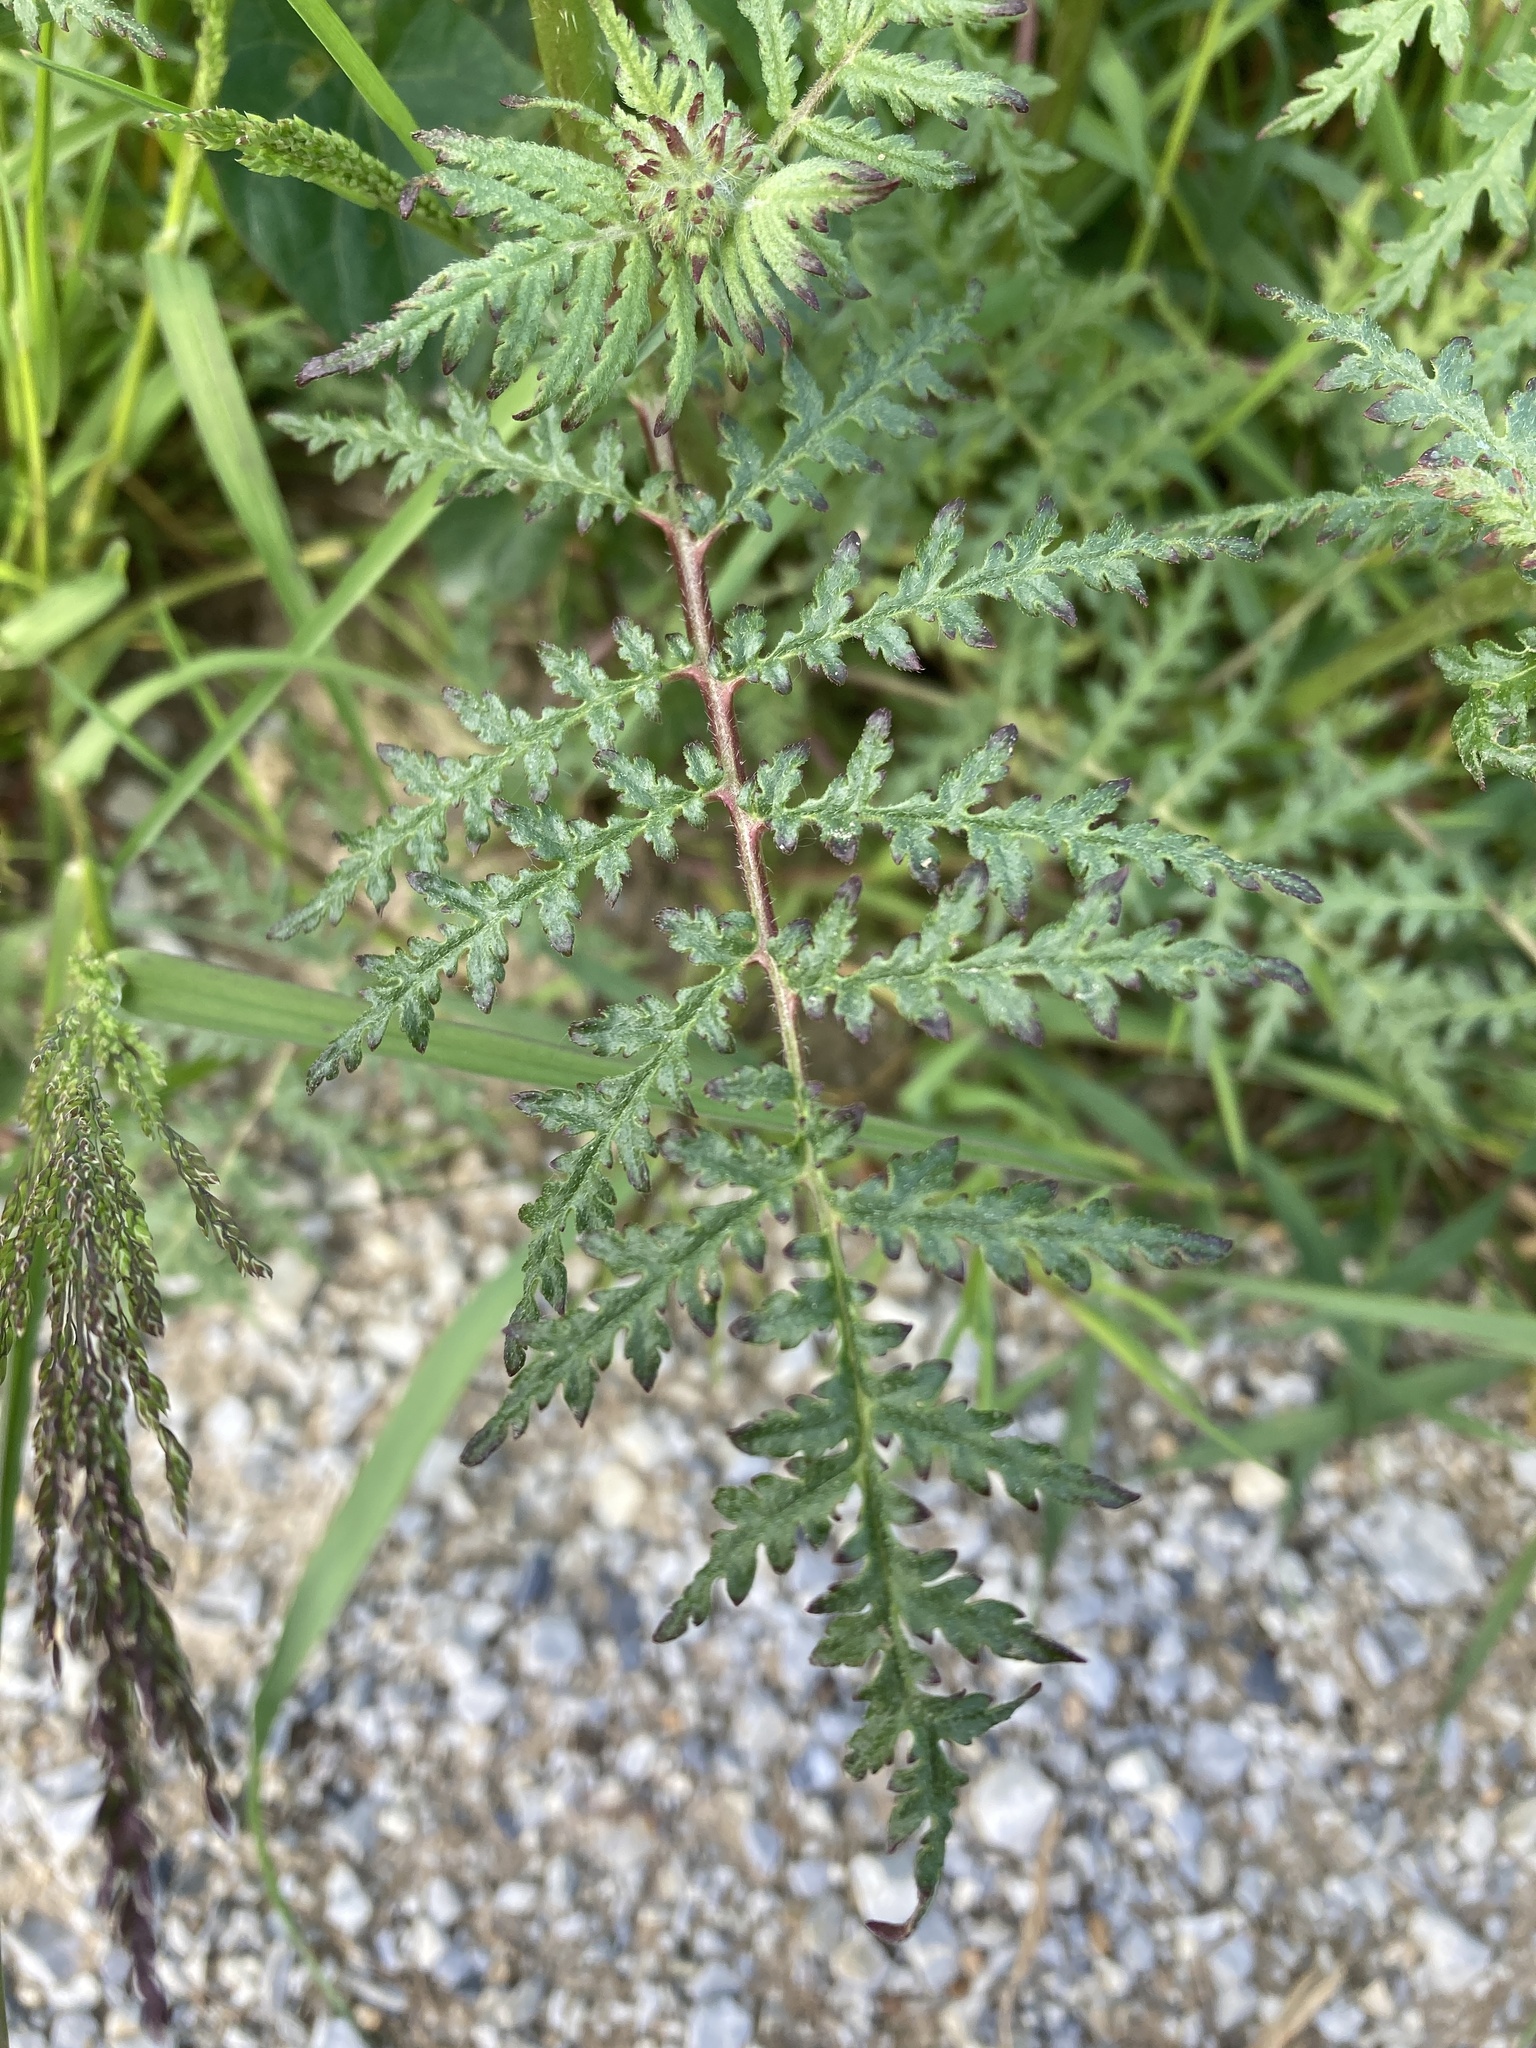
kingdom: Plantae
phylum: Tracheophyta
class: Magnoliopsida
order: Boraginales
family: Hydrophyllaceae
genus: Phacelia
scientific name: Phacelia tanacetifolia
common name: Phacelia
